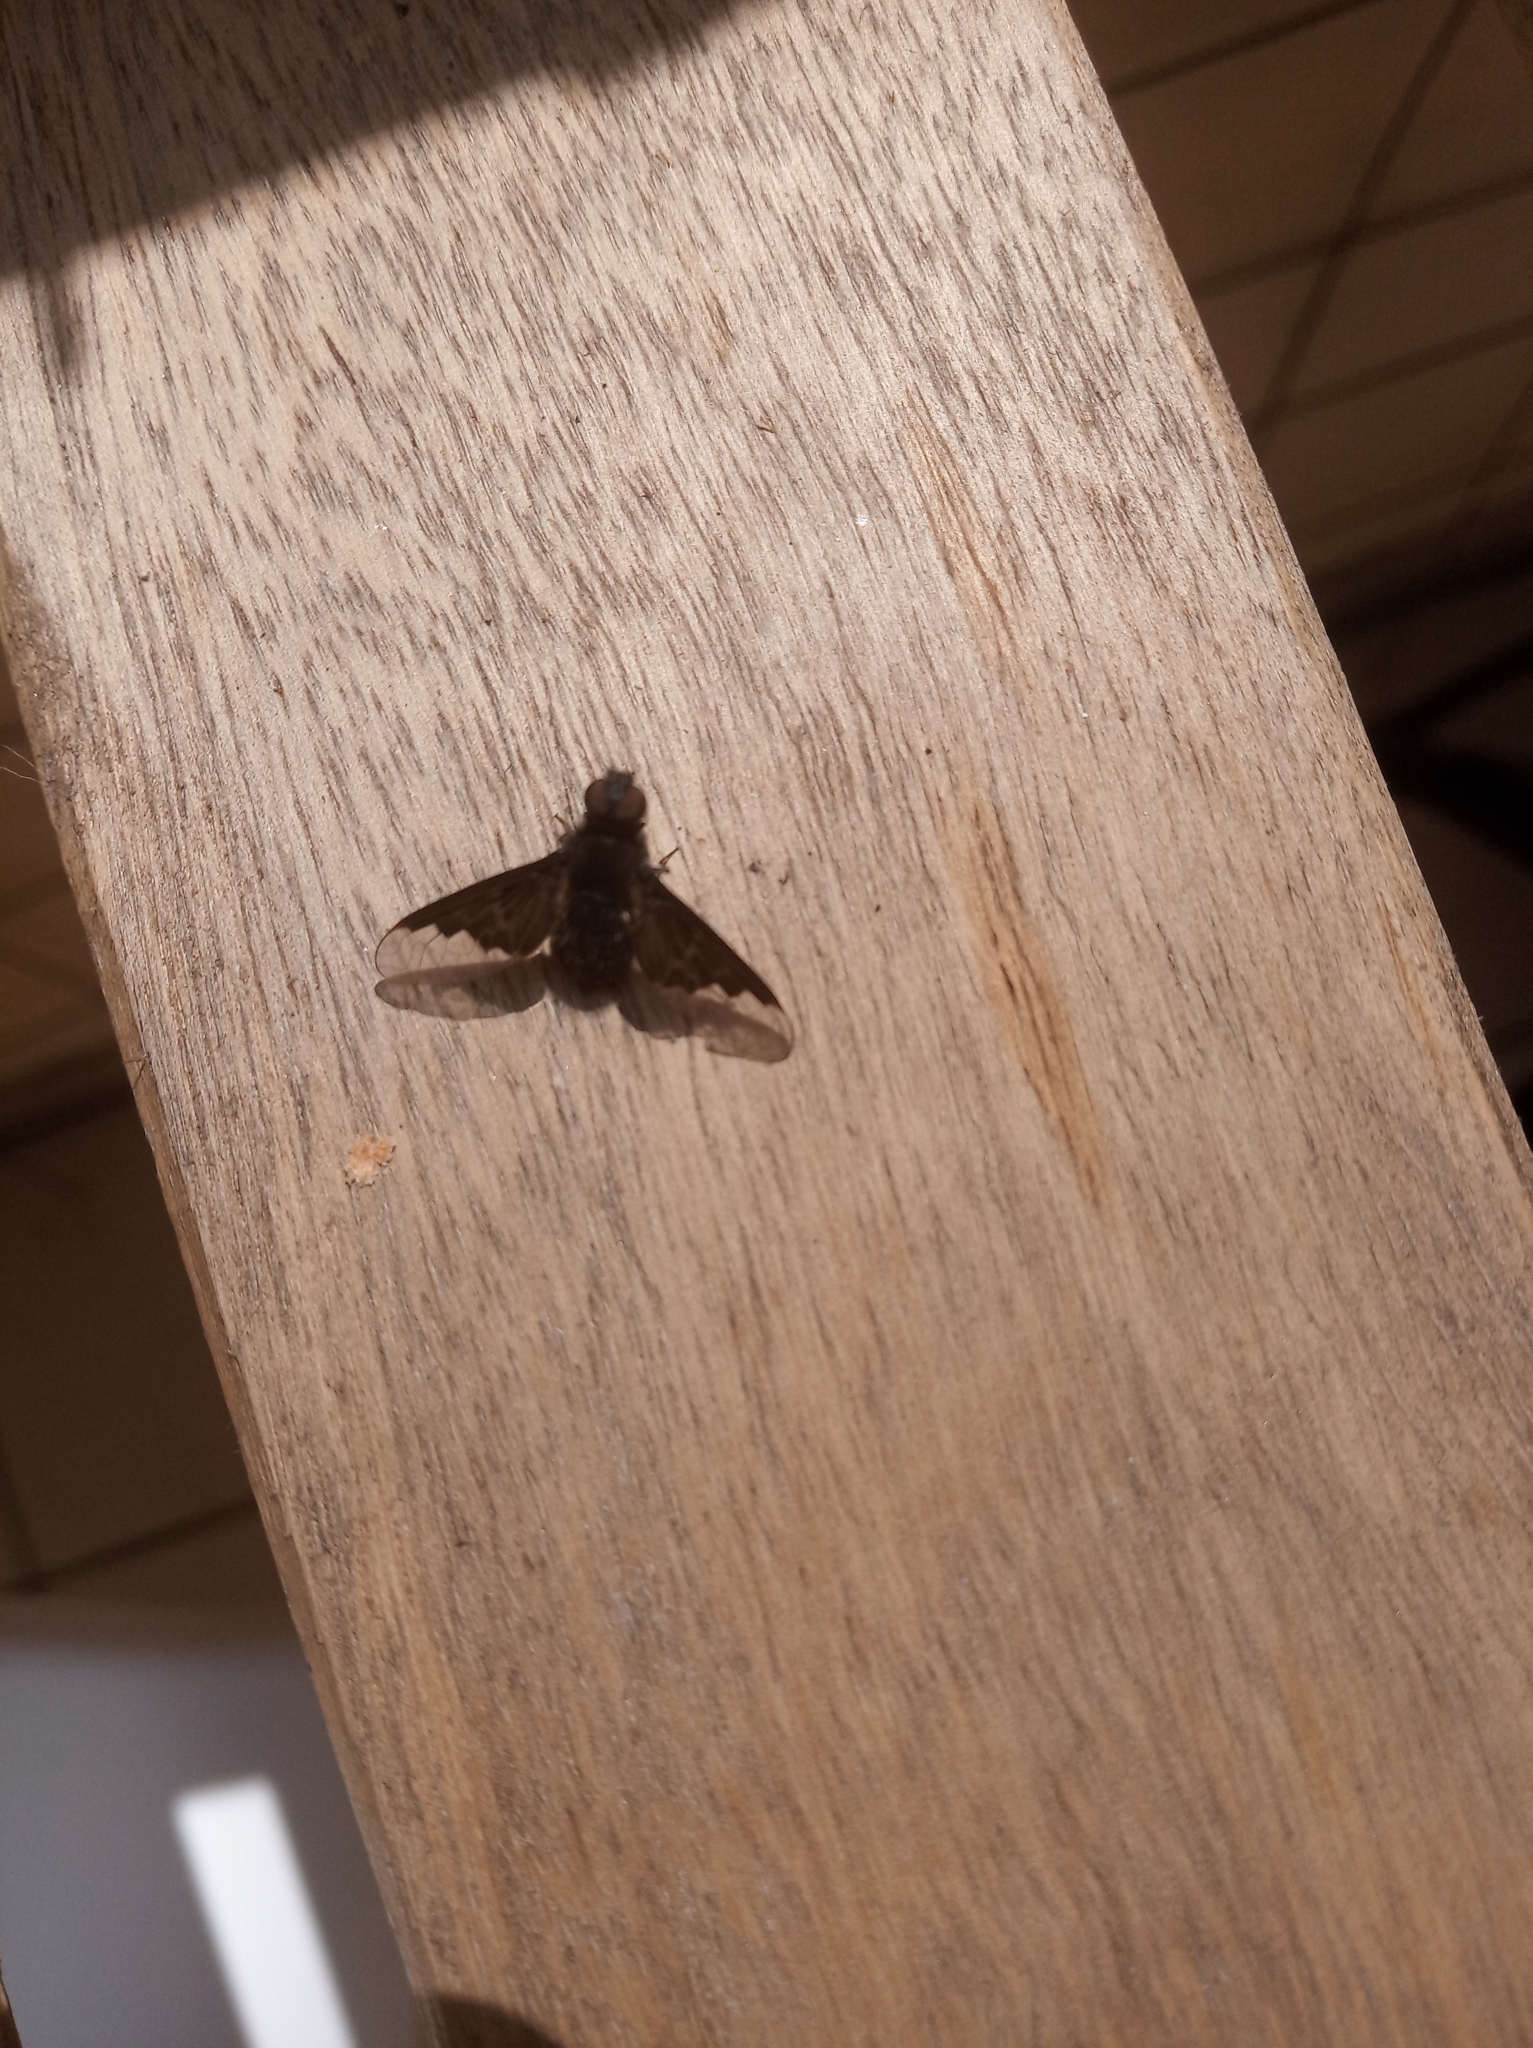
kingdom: Animalia
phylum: Arthropoda
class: Insecta
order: Diptera
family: Bombyliidae
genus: Hemipenthes
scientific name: Hemipenthes morio
